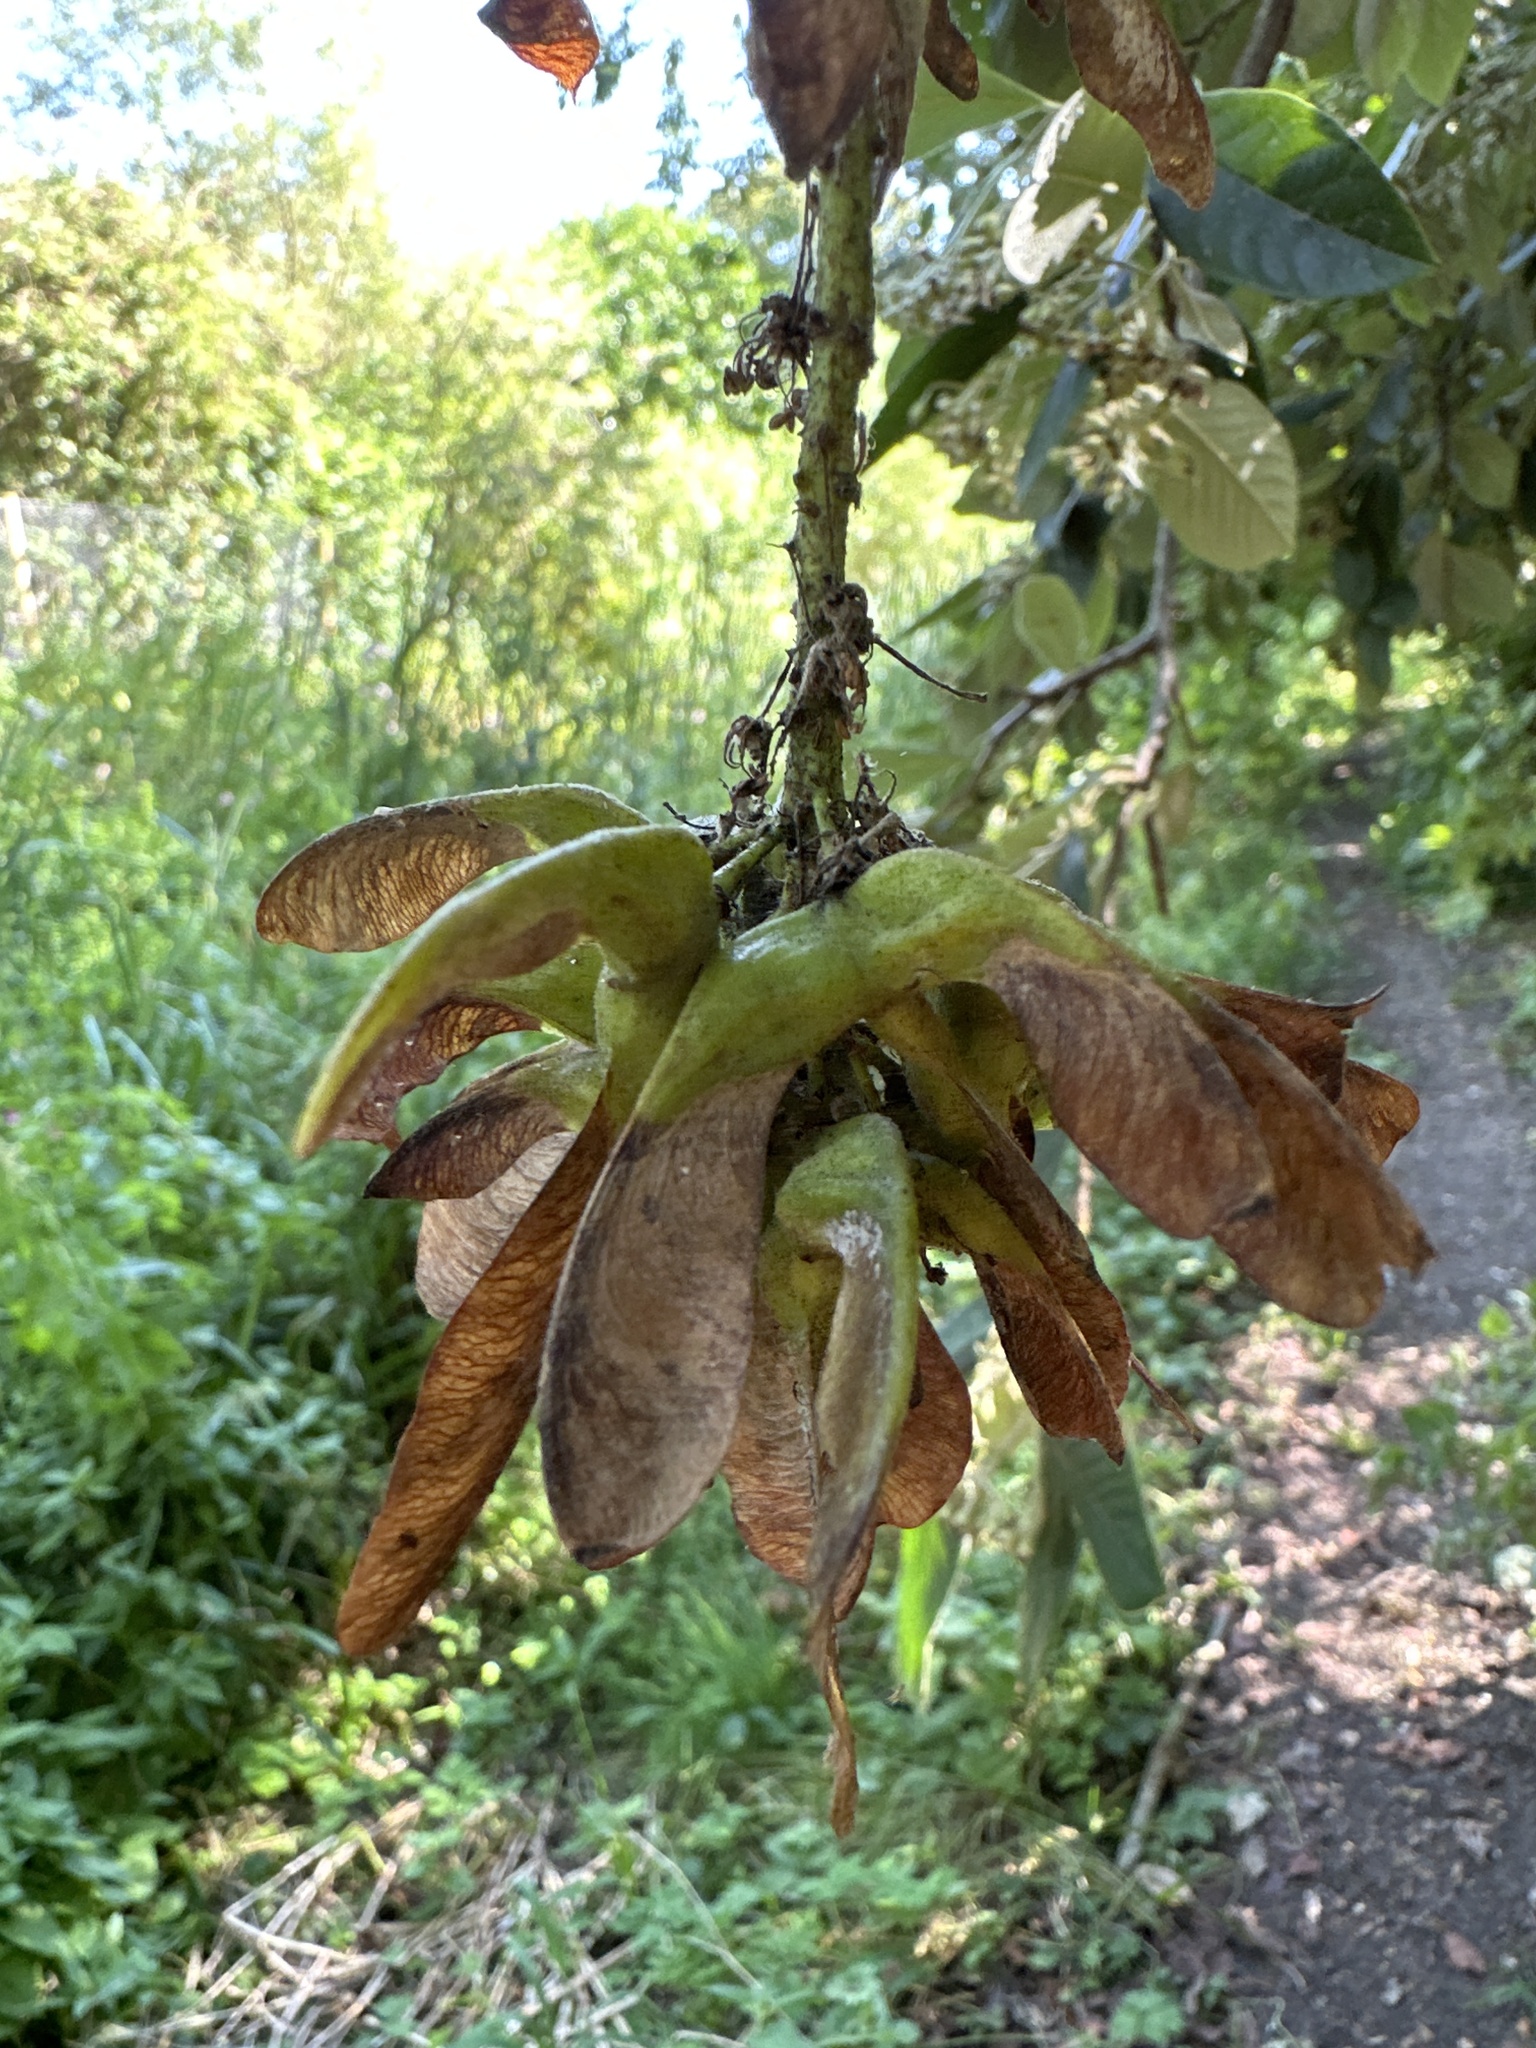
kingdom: Plantae
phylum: Tracheophyta
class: Magnoliopsida
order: Sapindales
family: Sapindaceae
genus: Acer
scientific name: Acer pseudoplatanus
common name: Sycamore
